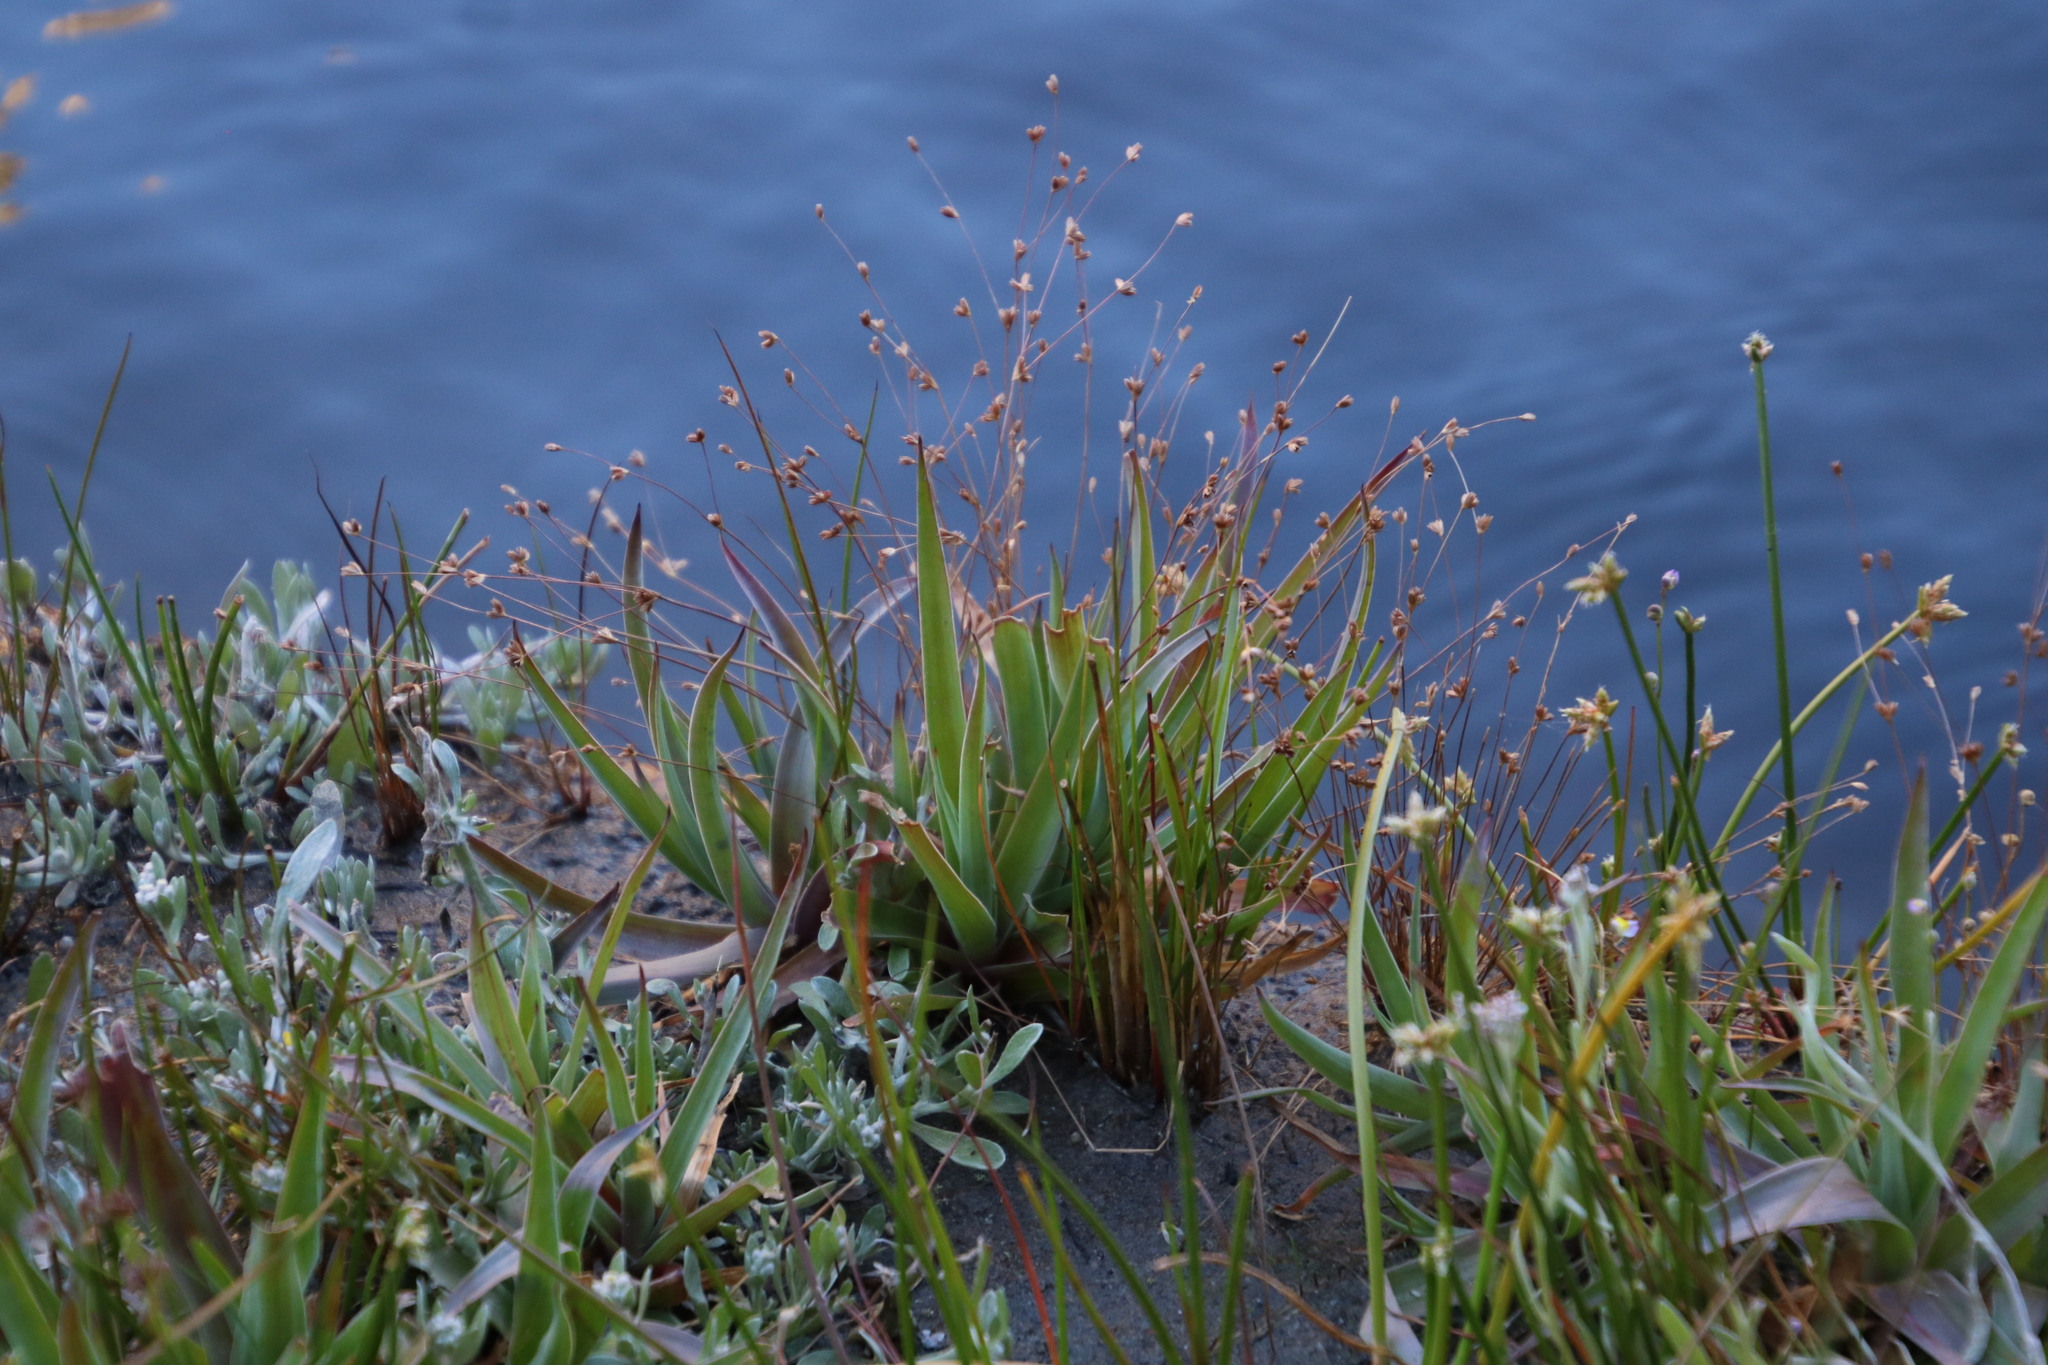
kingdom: Plantae
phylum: Tracheophyta
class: Liliopsida
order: Poales
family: Cyperaceae
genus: Isolepis
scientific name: Isolepis prolifera
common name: Proliferating bulrush
